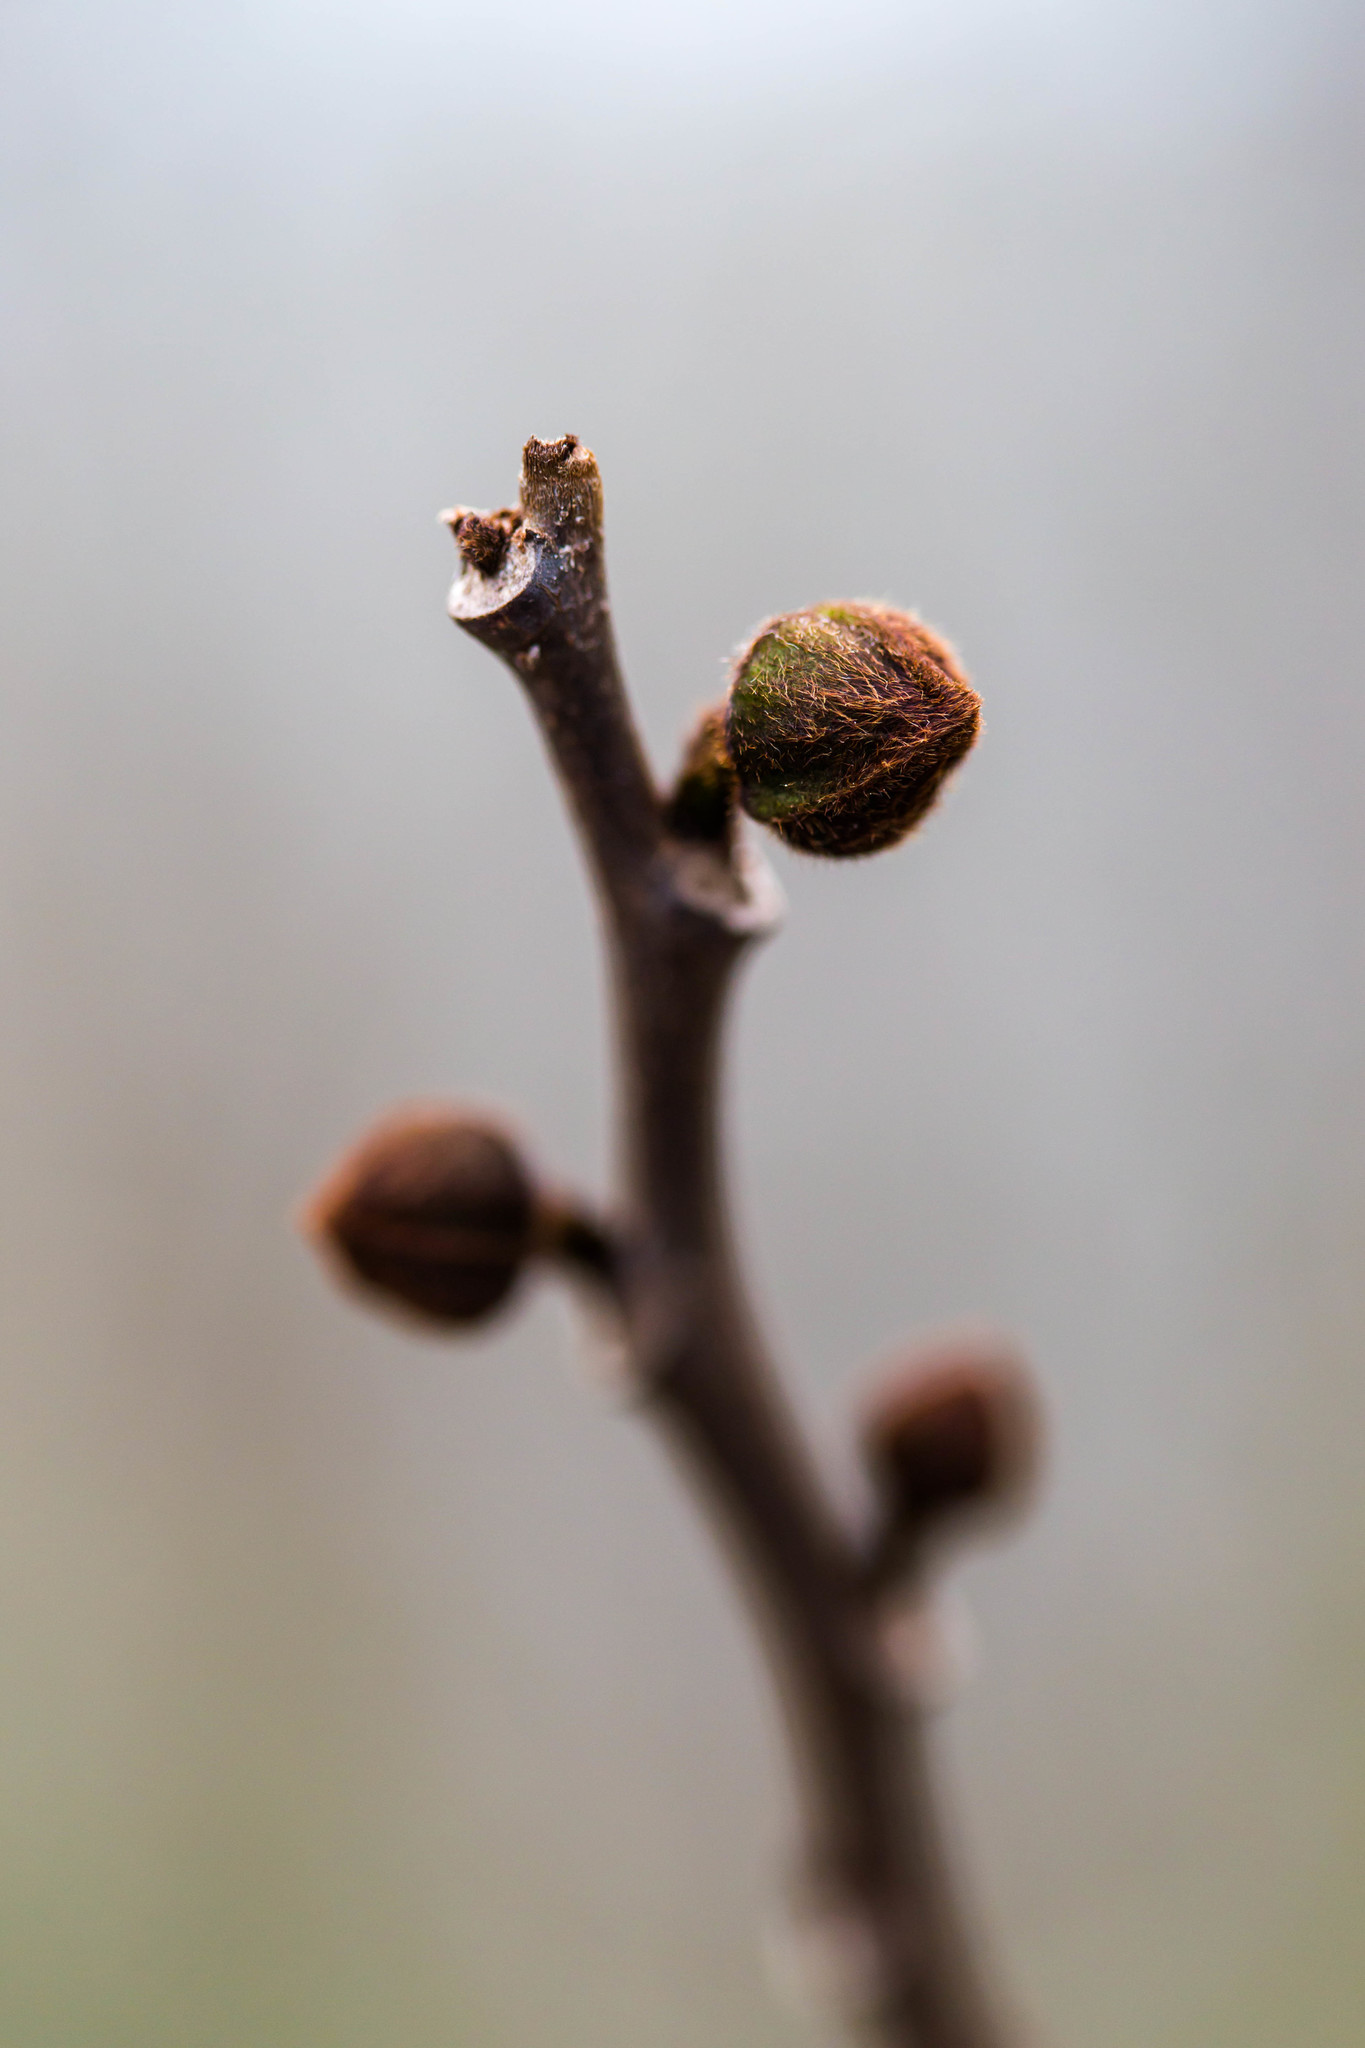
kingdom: Plantae
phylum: Tracheophyta
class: Magnoliopsida
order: Magnoliales
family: Annonaceae
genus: Asimina
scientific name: Asimina triloba
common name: Dog-banana
